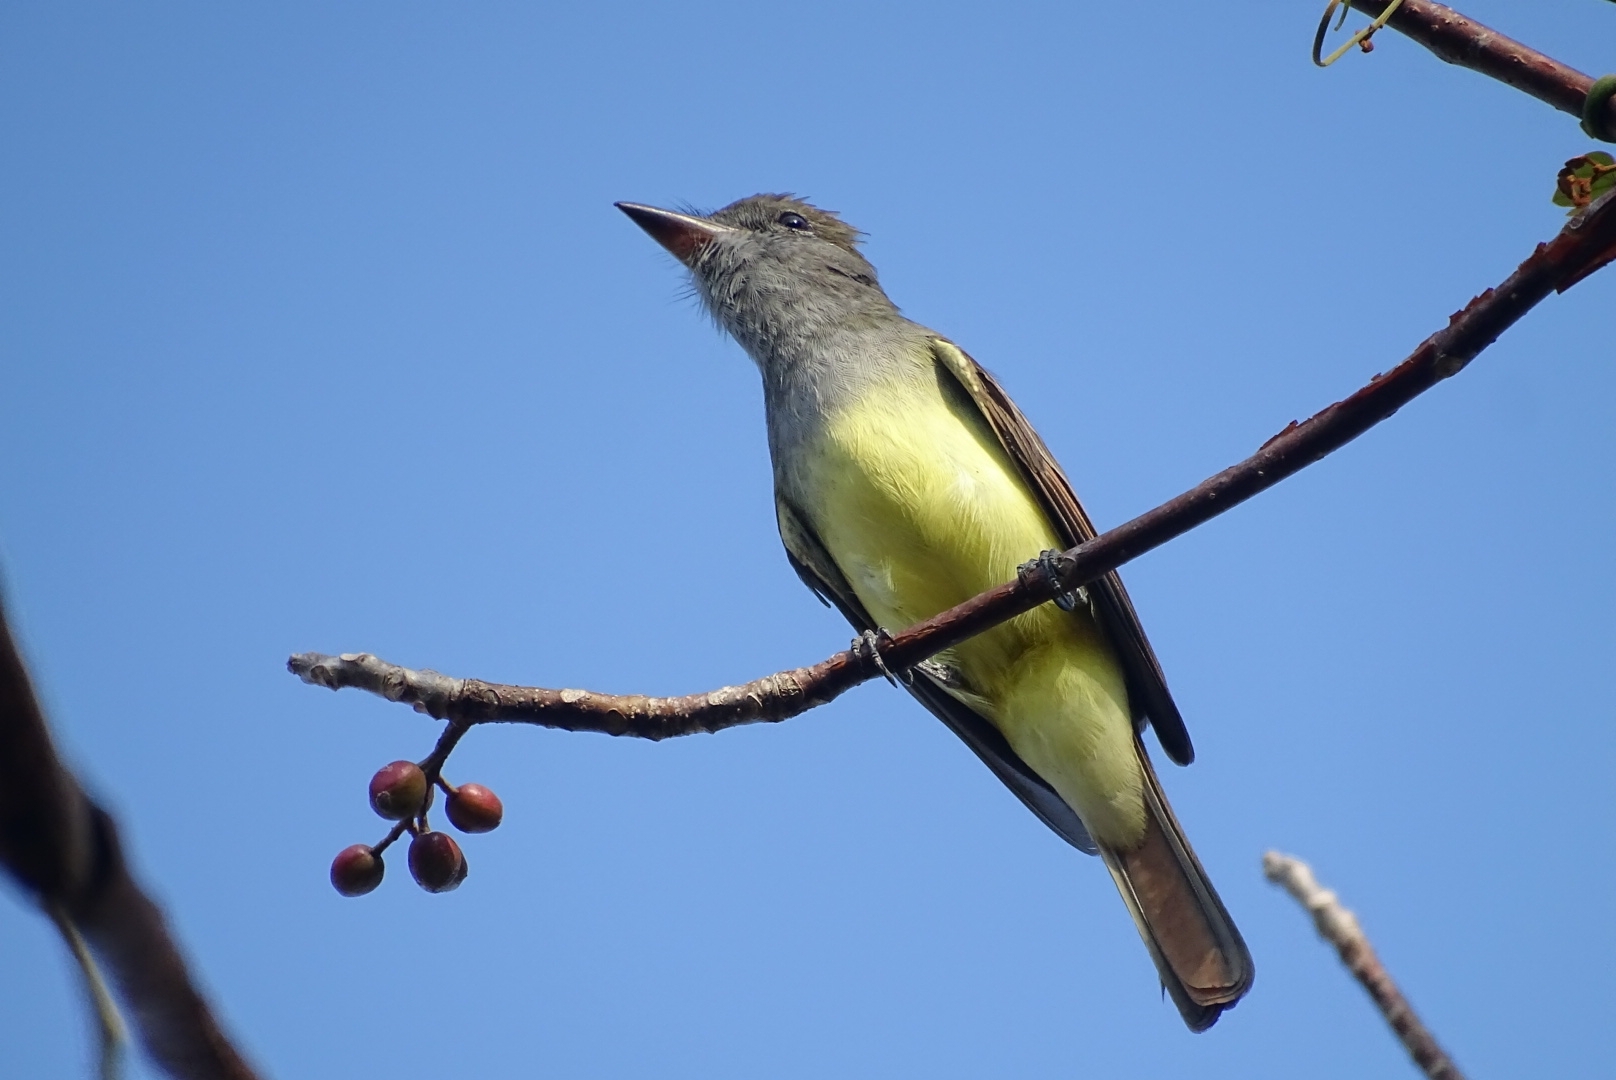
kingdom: Animalia
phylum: Chordata
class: Aves
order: Passeriformes
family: Tyrannidae
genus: Myiarchus
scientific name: Myiarchus crinitus
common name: Great crested flycatcher
